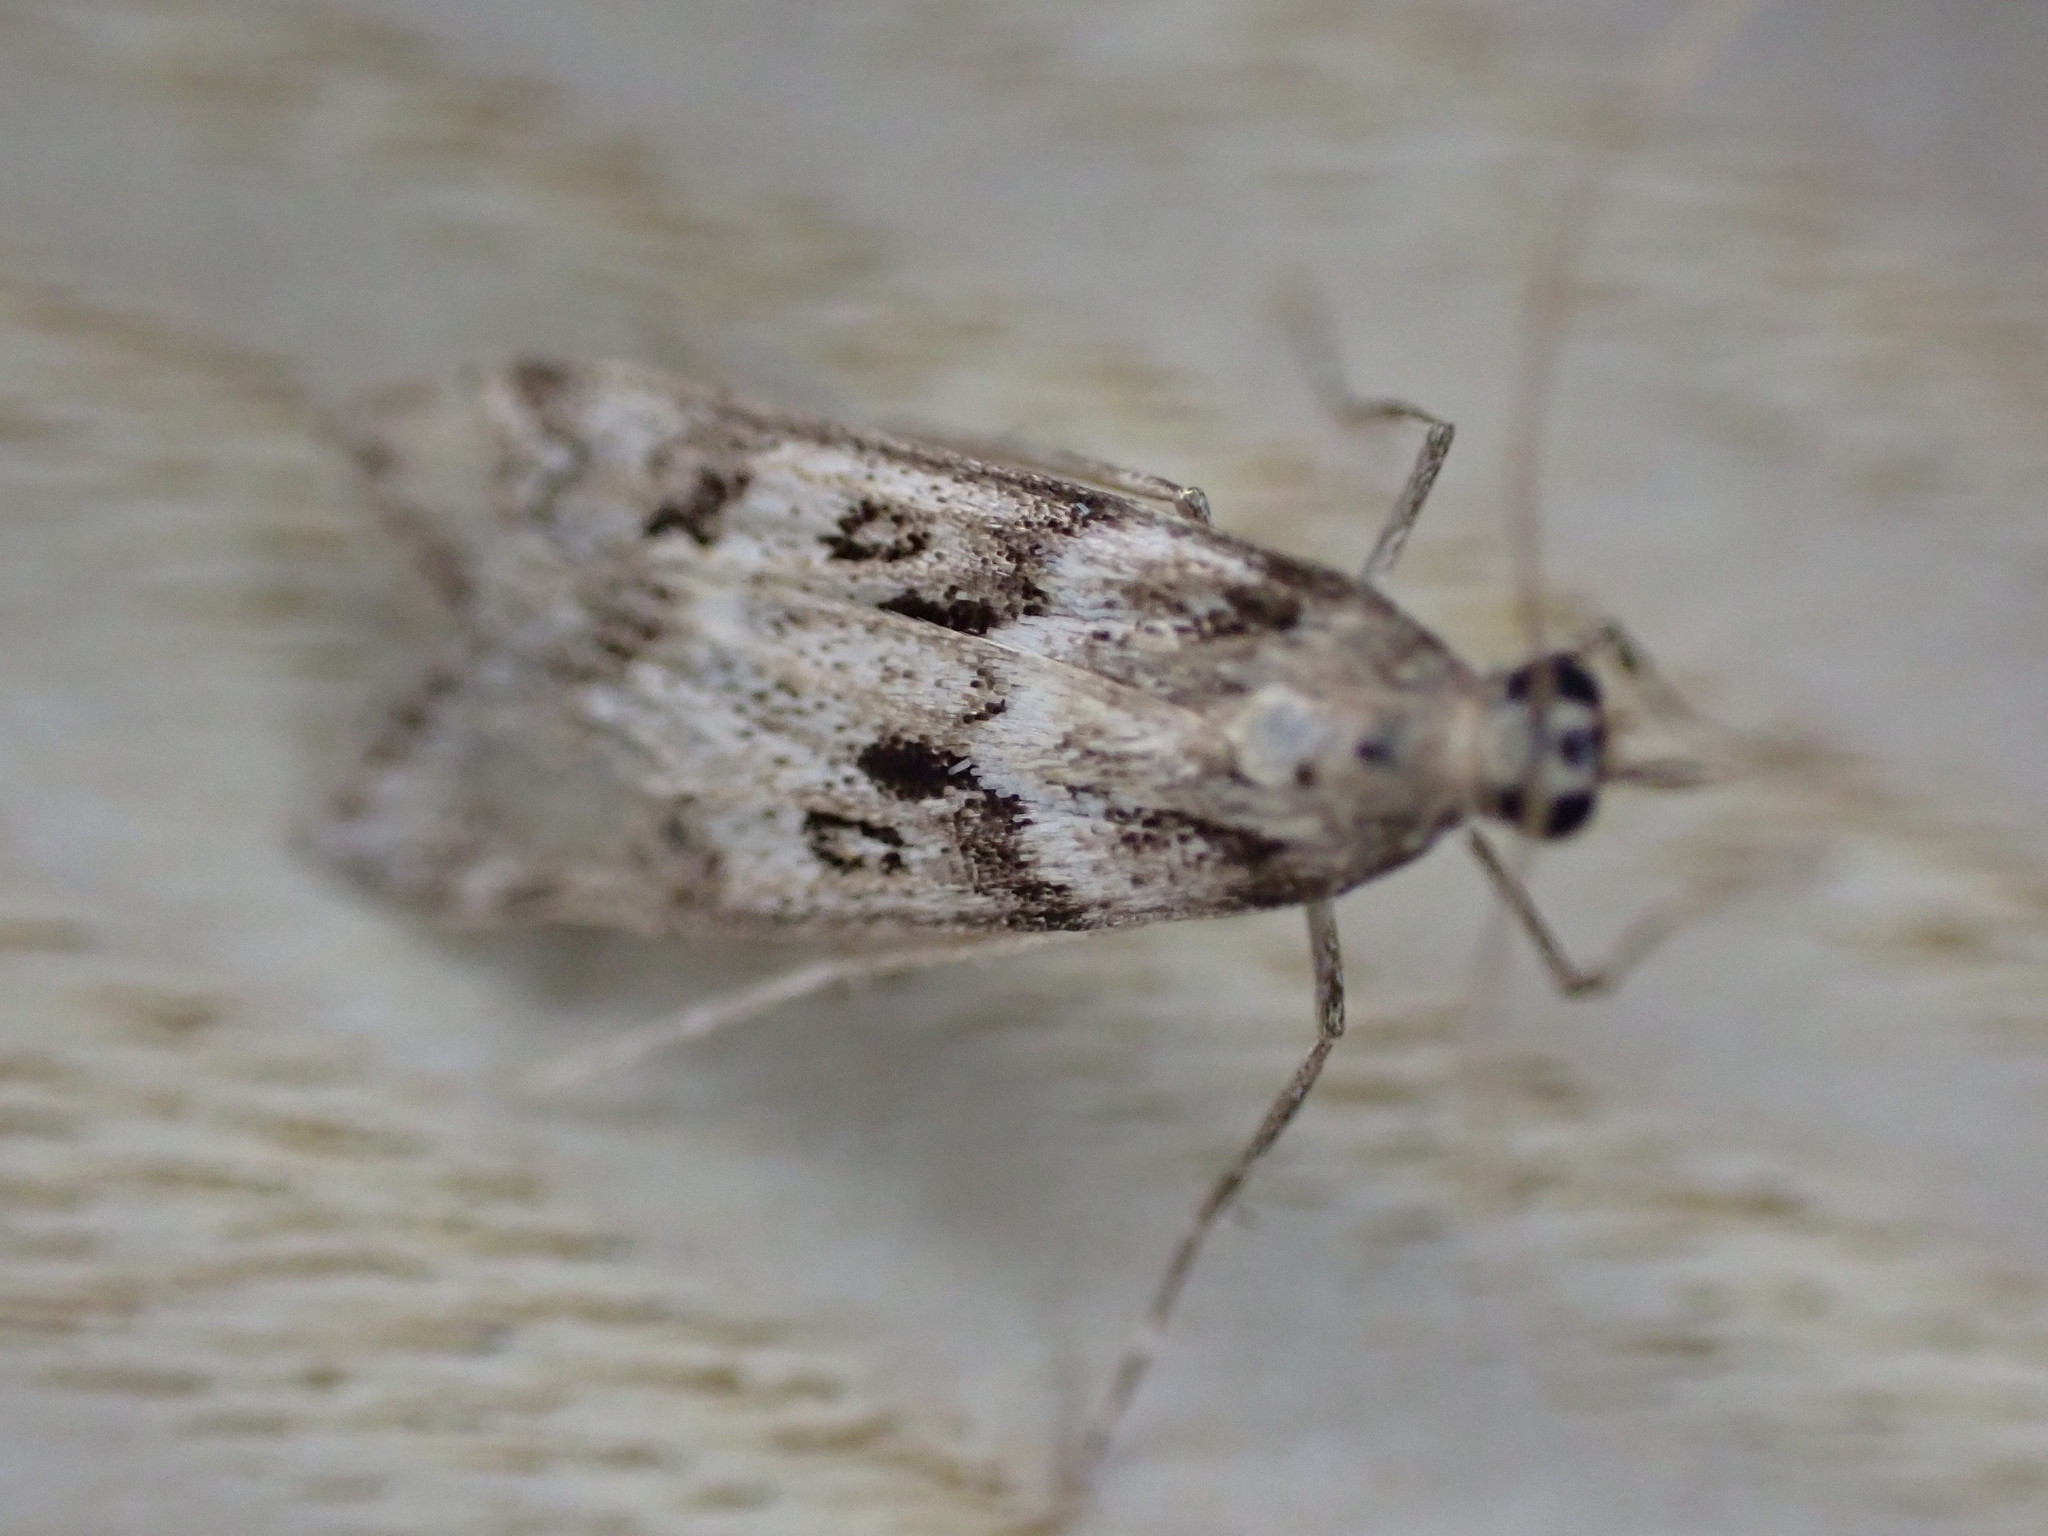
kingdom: Animalia
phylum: Arthropoda
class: Insecta
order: Lepidoptera
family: Crambidae
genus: Eudonia
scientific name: Eudonia angustea
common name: Narrow-winged grey
